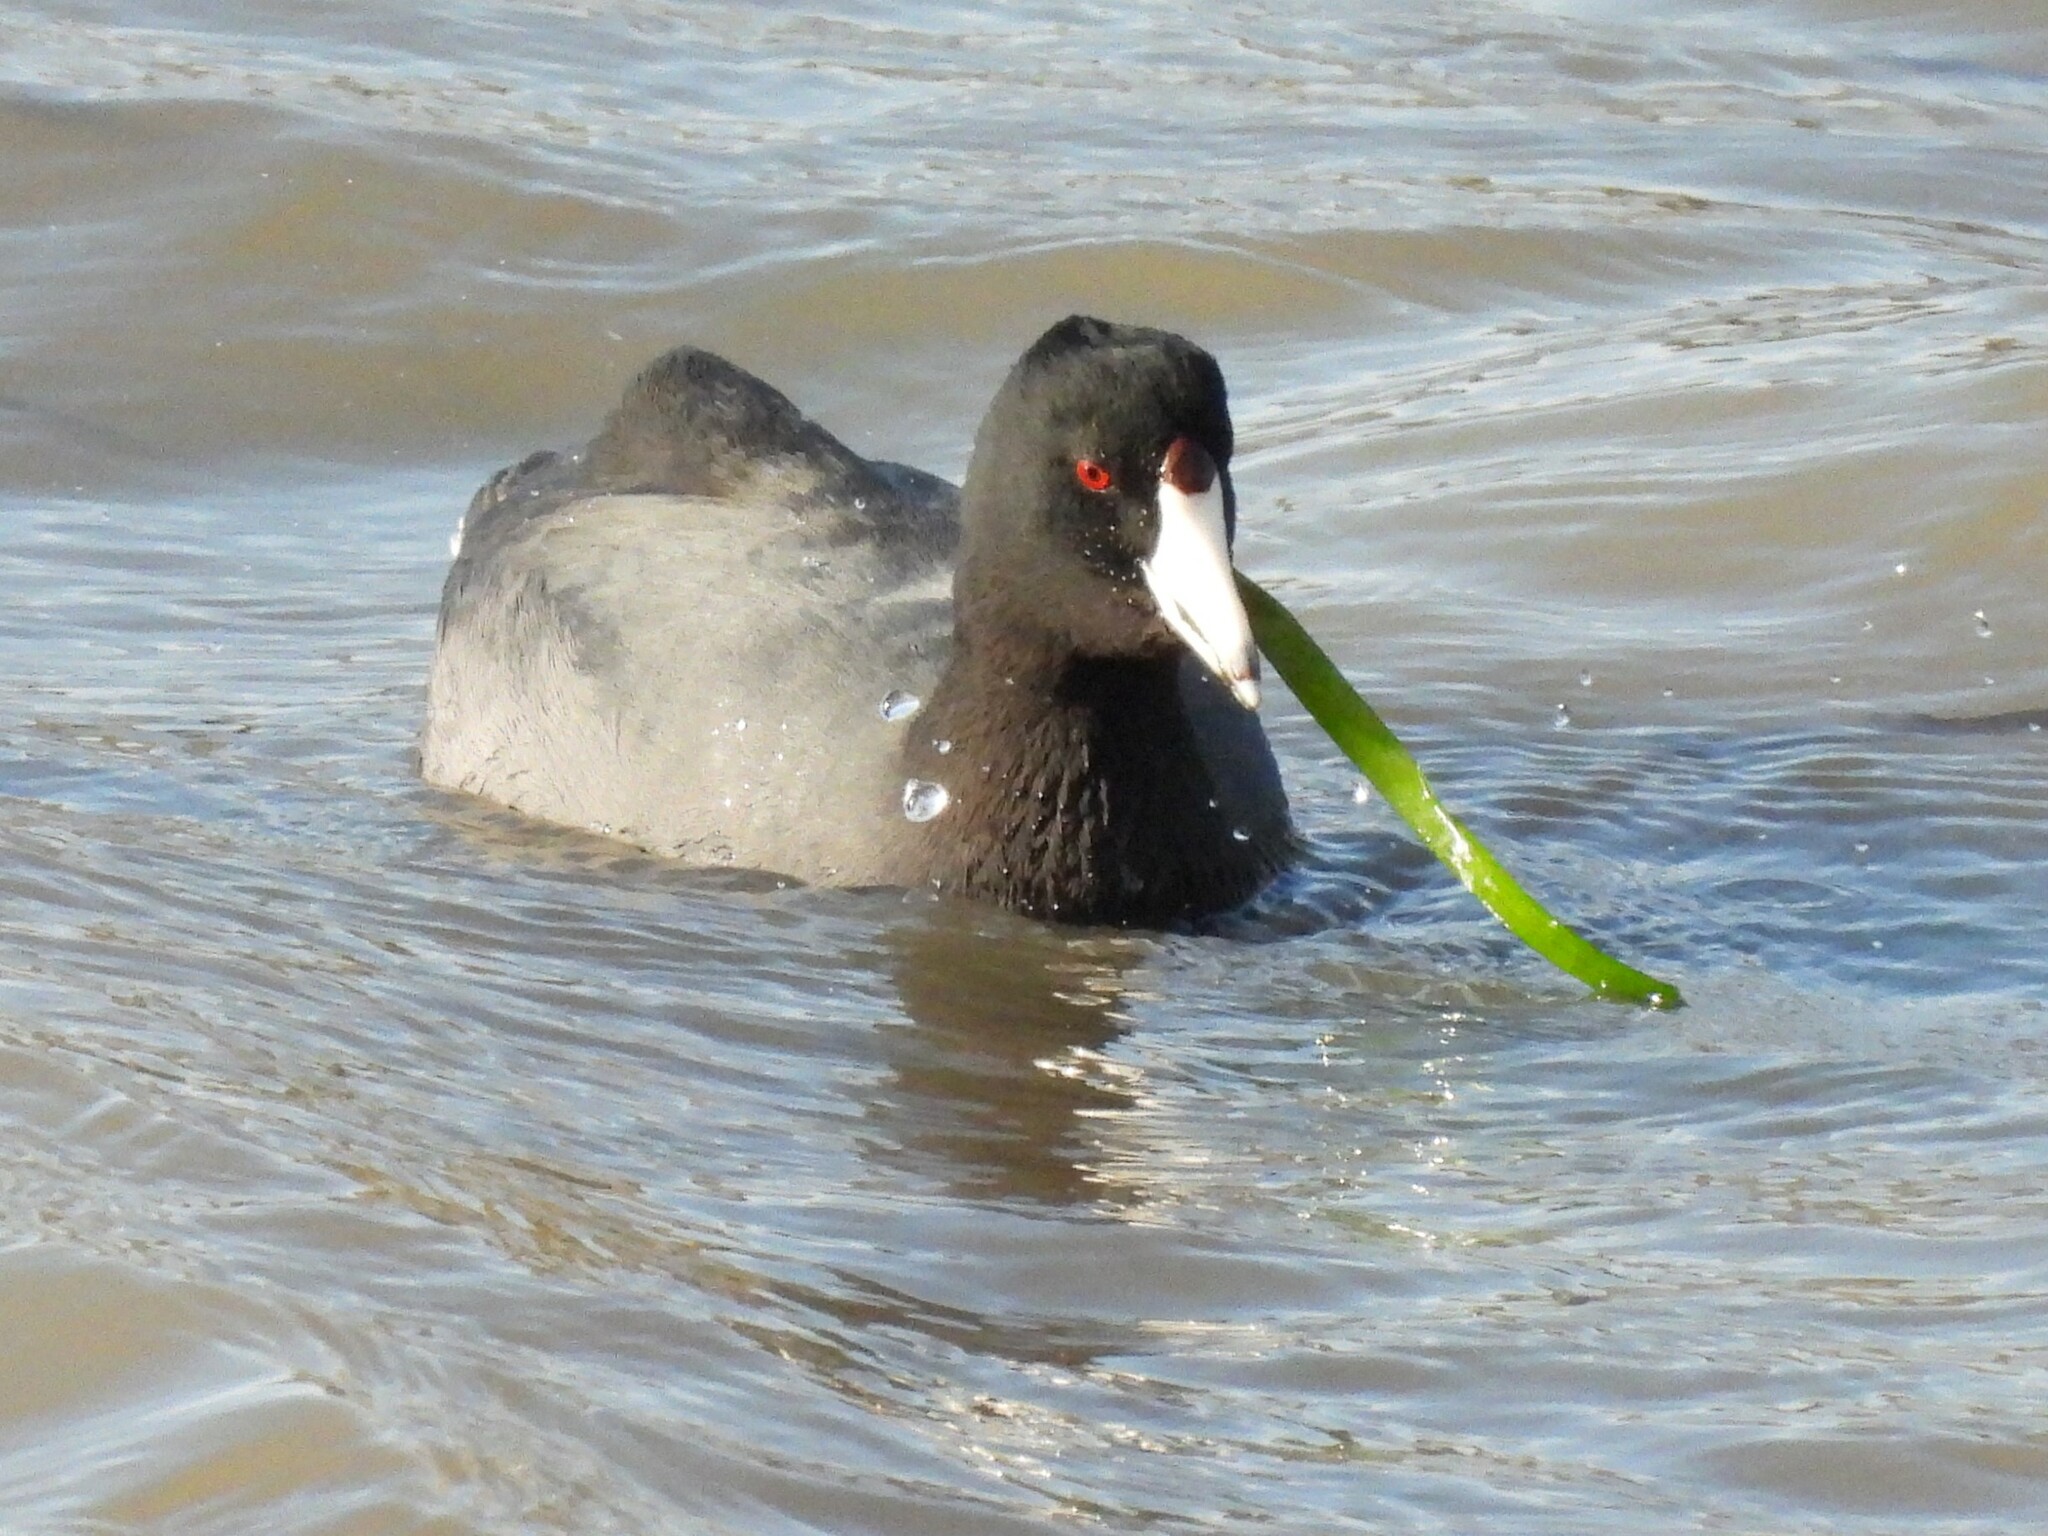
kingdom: Animalia
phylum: Chordata
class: Aves
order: Gruiformes
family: Rallidae
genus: Fulica
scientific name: Fulica americana
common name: American coot
